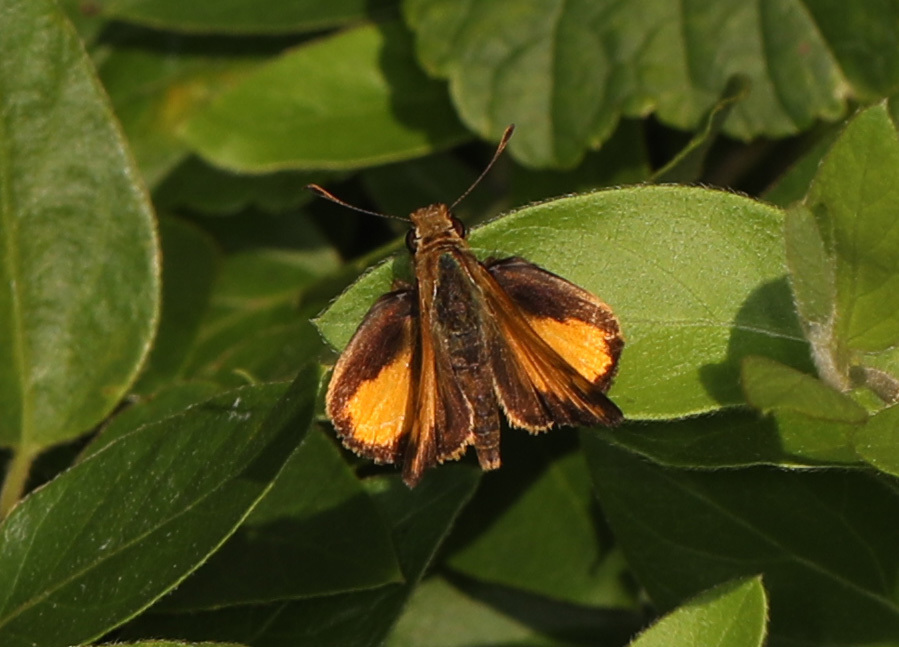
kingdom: Animalia
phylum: Arthropoda
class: Insecta
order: Lepidoptera
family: Hesperiidae
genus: Lon
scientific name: Lon zabulon
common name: Zabulon skipper
